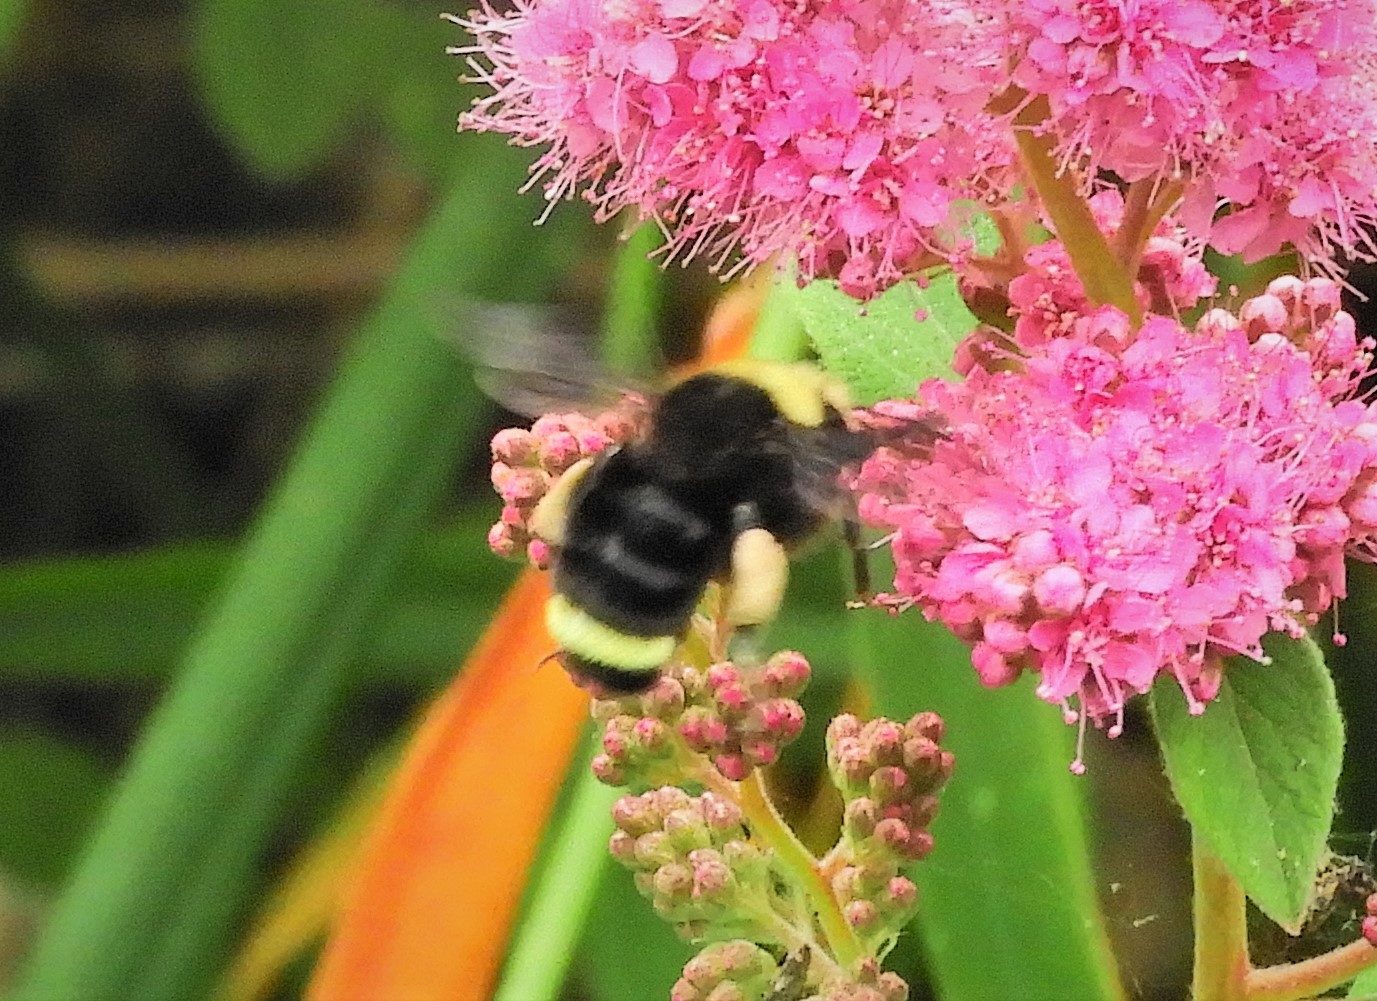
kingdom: Animalia
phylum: Arthropoda
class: Insecta
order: Hymenoptera
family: Apidae
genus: Bombus
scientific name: Bombus vosnesenskii
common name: Vosnesensky bumble bee
